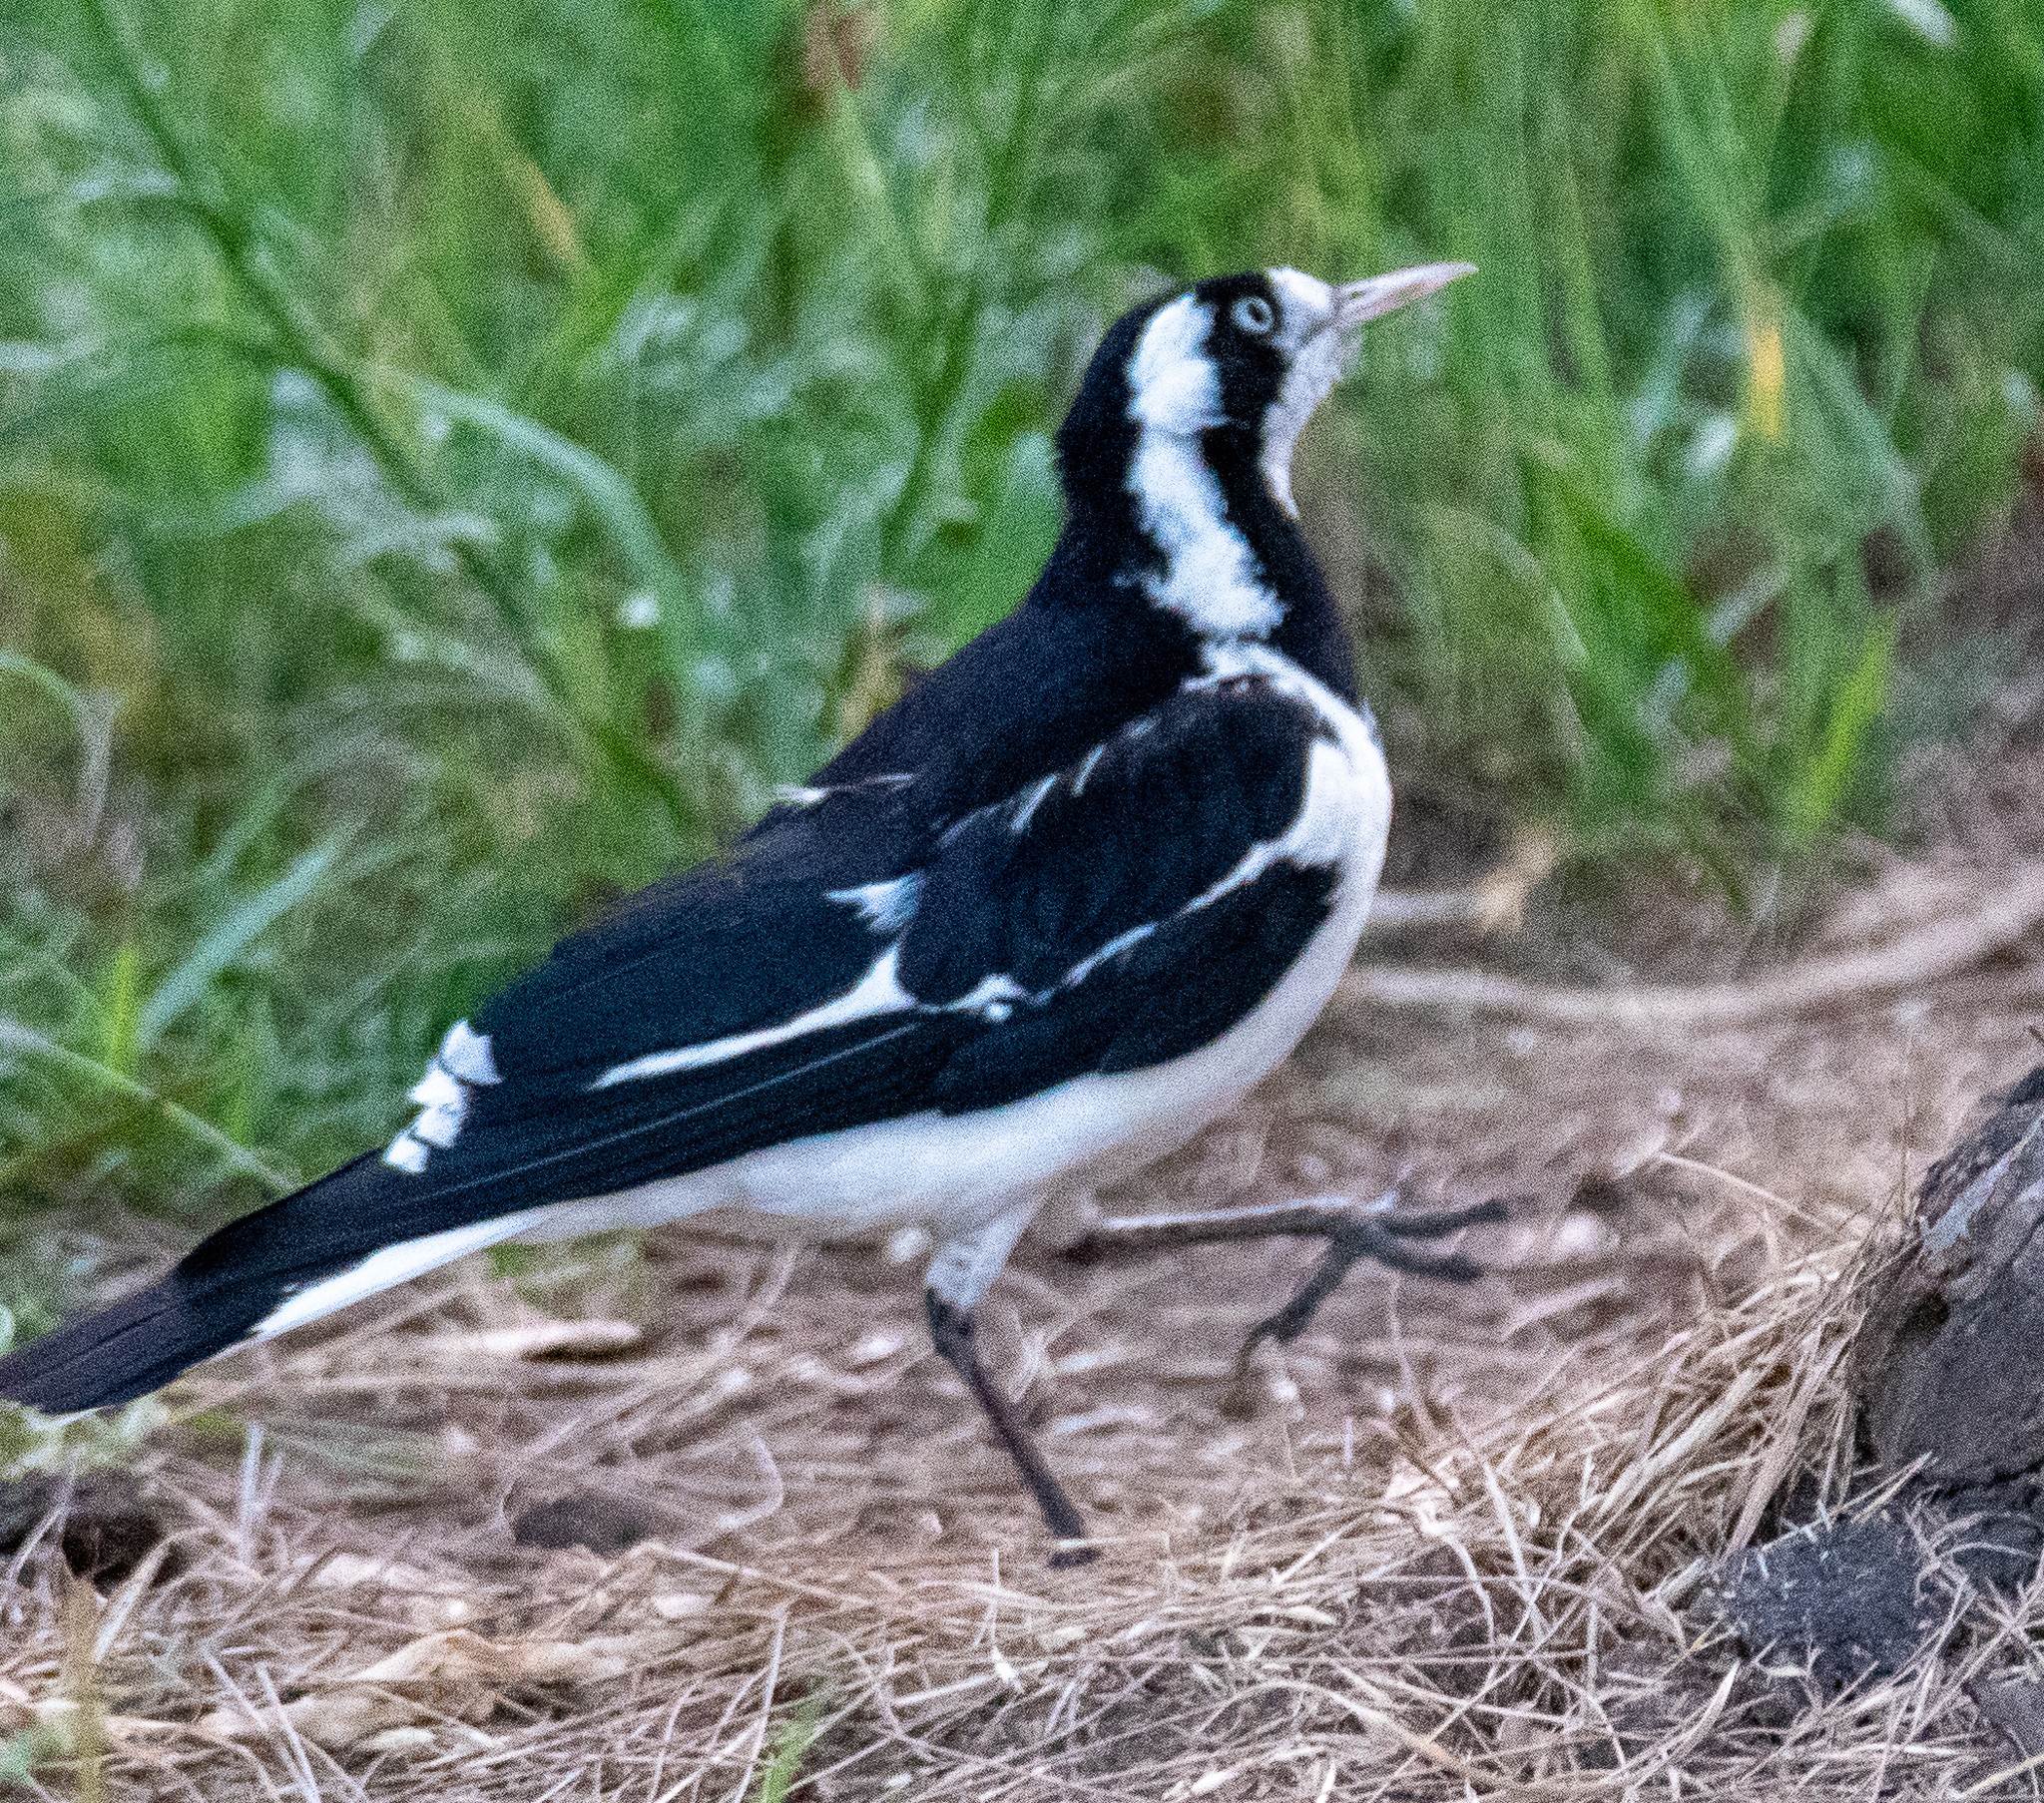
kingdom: Animalia
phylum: Chordata
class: Aves
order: Passeriformes
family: Monarchidae
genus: Grallina
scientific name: Grallina cyanoleuca
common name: Magpie-lark
